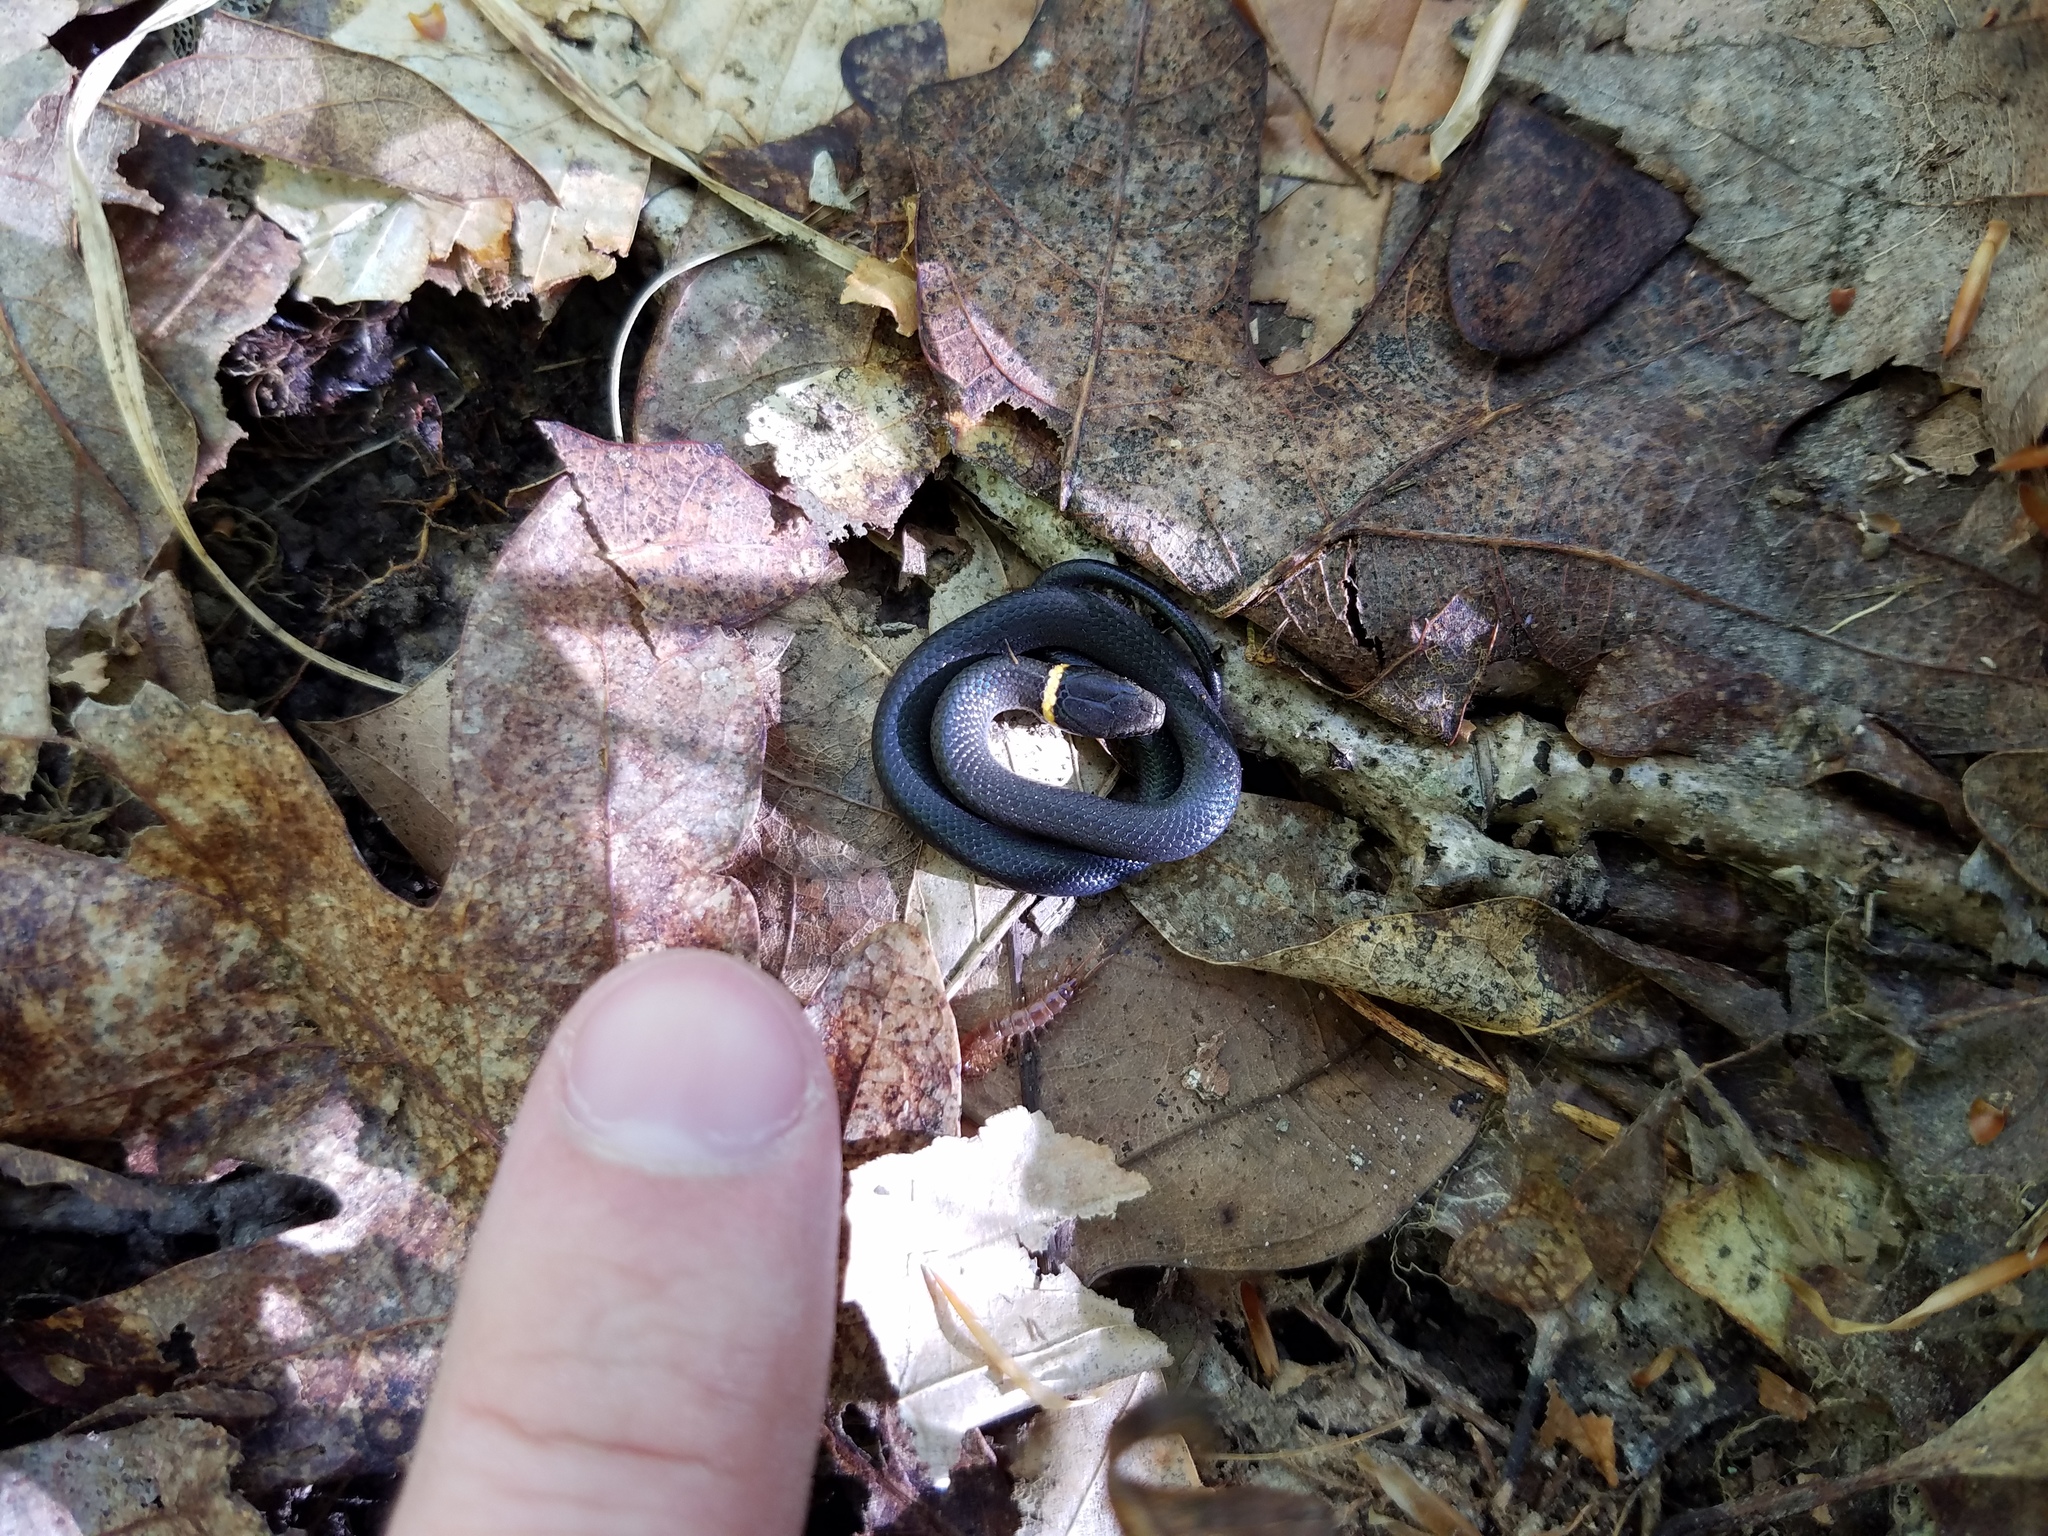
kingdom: Animalia
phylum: Chordata
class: Squamata
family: Colubridae
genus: Diadophis
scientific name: Diadophis punctatus
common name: Ringneck snake
